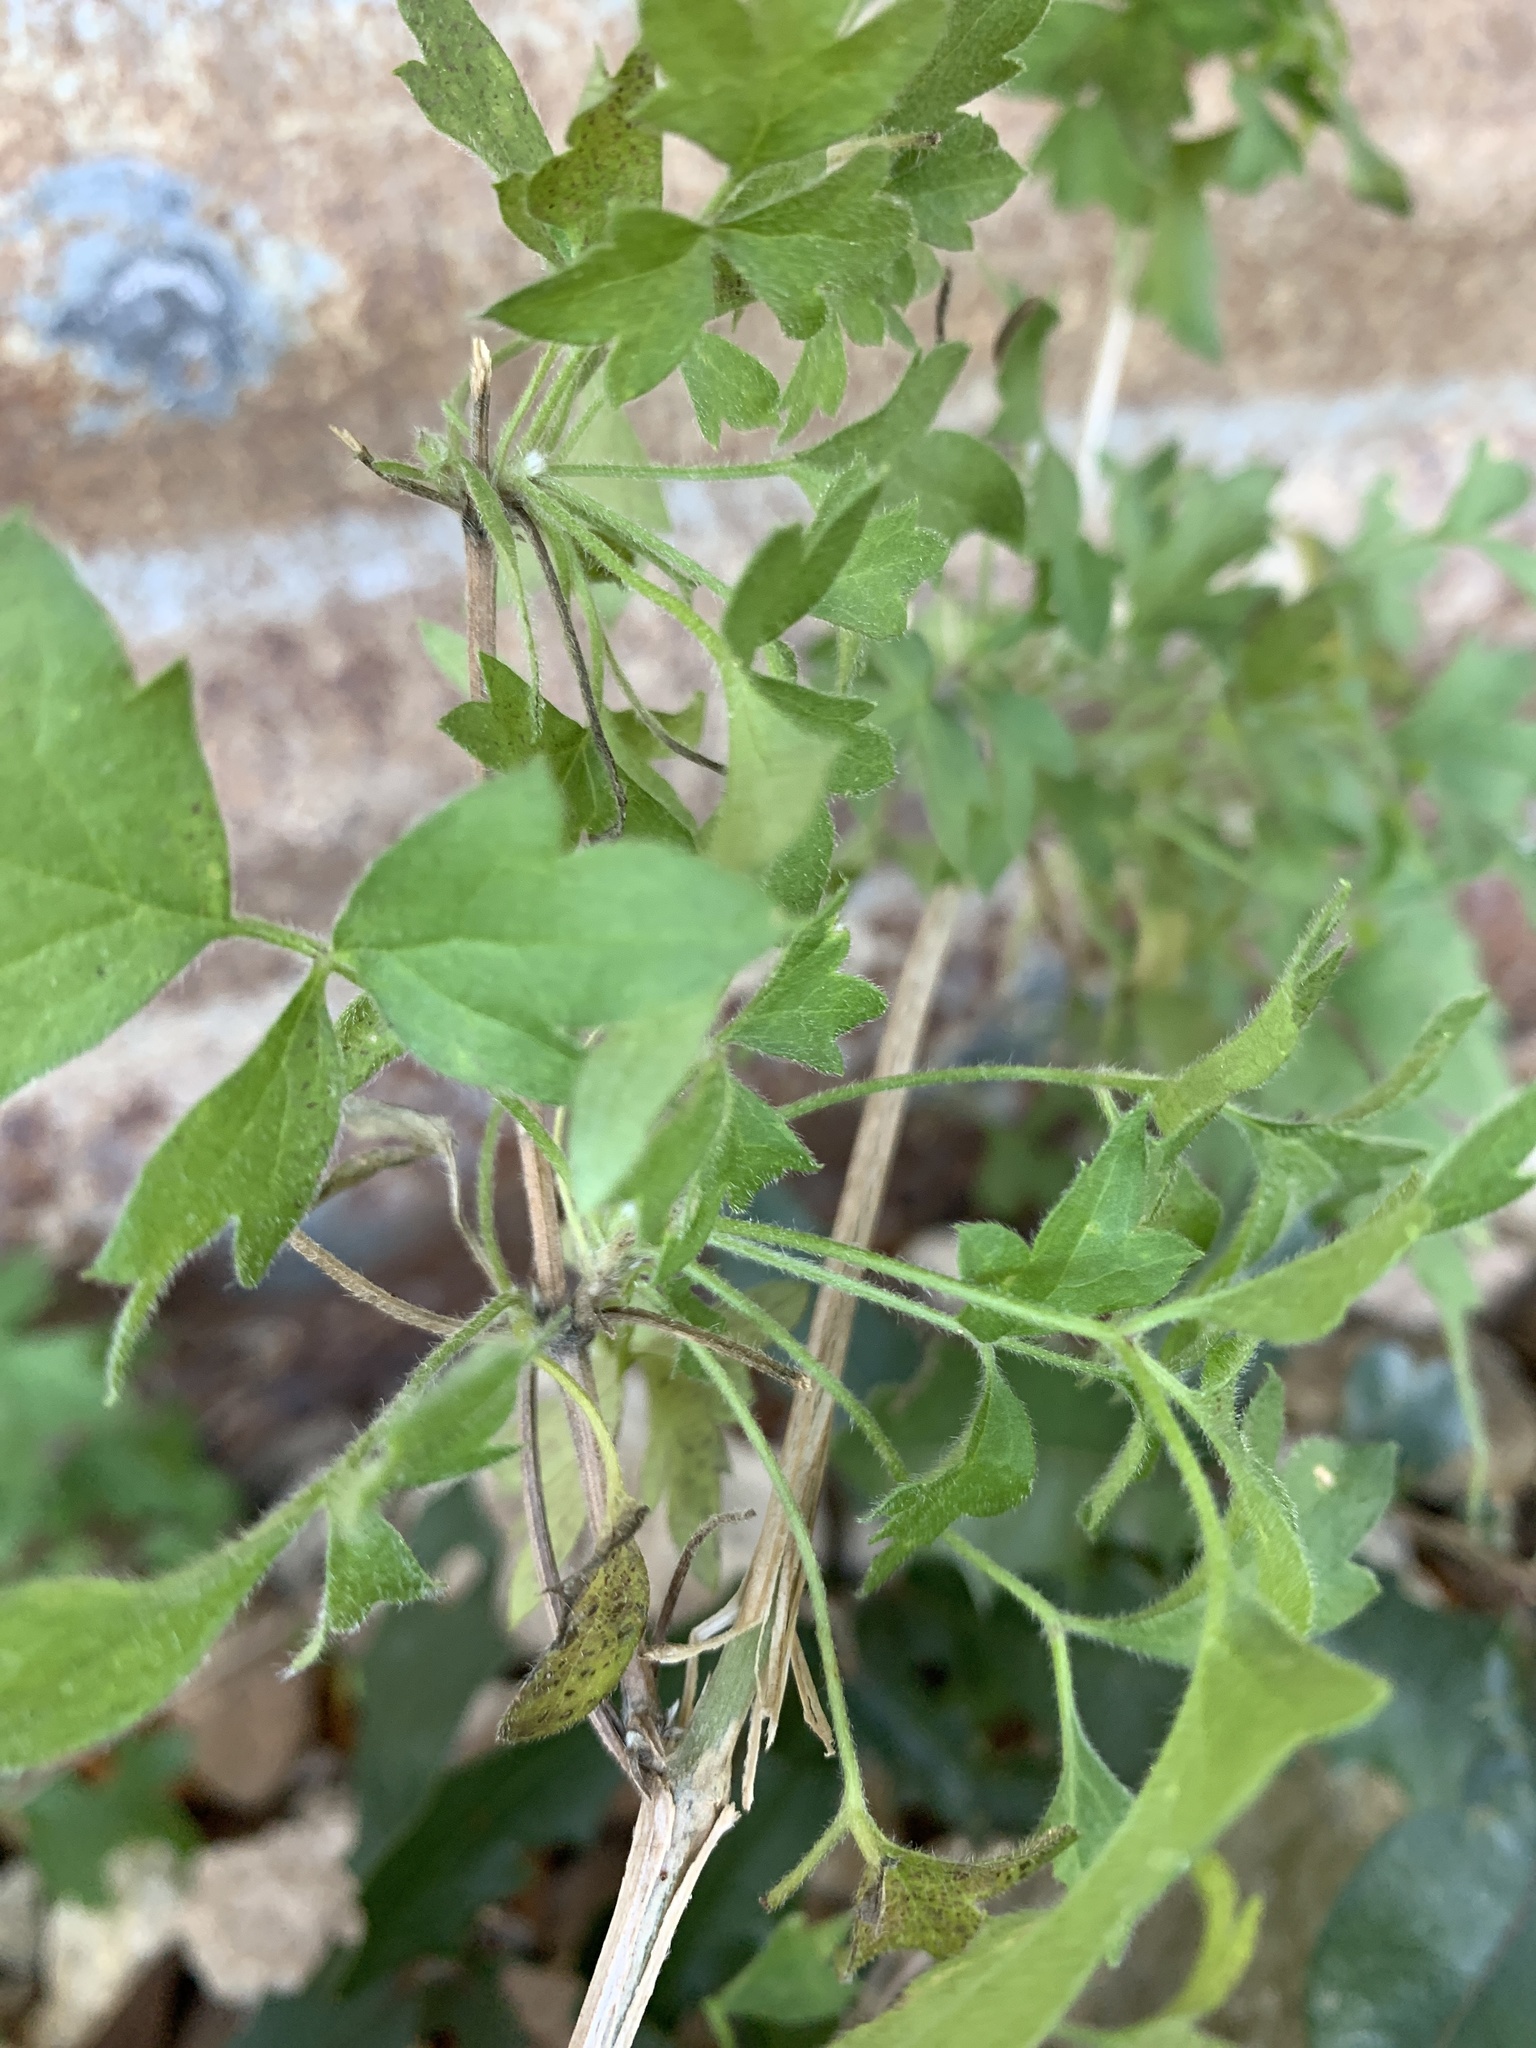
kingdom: Plantae
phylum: Tracheophyta
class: Magnoliopsida
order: Ranunculales
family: Ranunculaceae
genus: Clematis
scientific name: Clematis drummondii
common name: Texas virgin's bower
